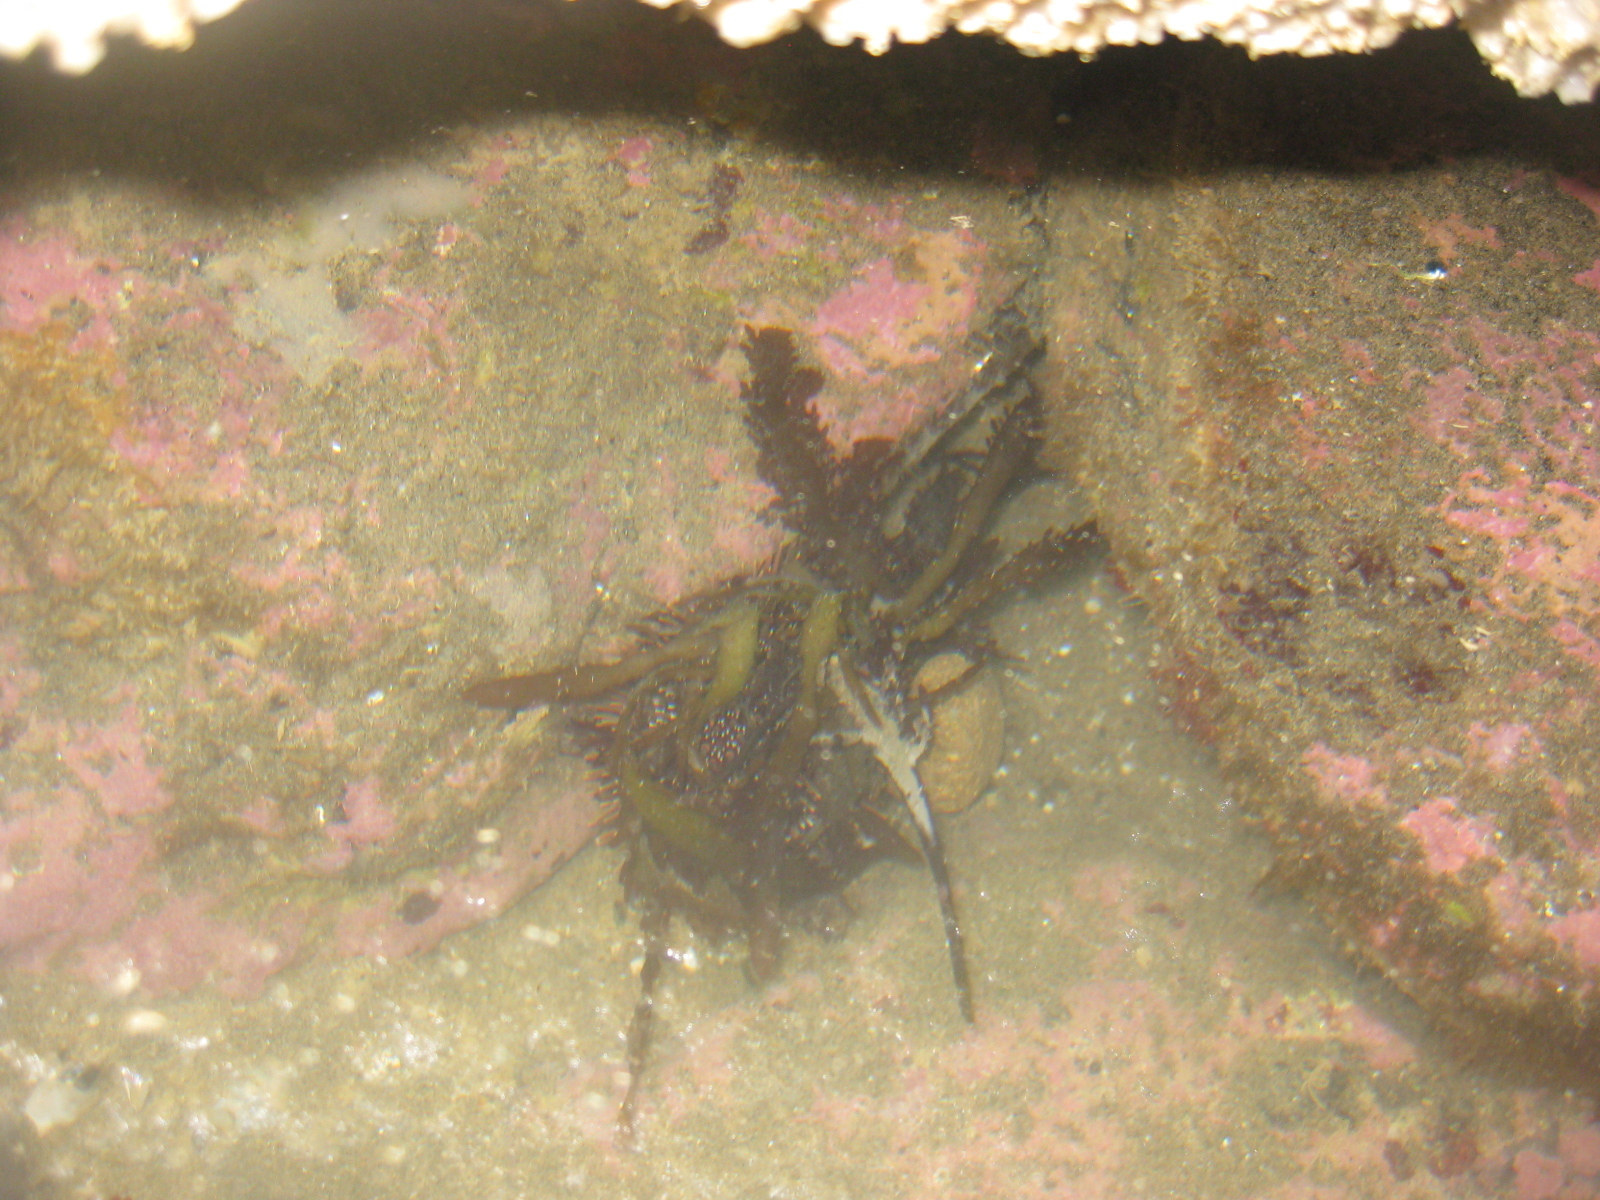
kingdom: Animalia
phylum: Echinodermata
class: Echinoidea
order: Camarodonta
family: Echinometridae
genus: Evechinus
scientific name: Evechinus chloroticus
